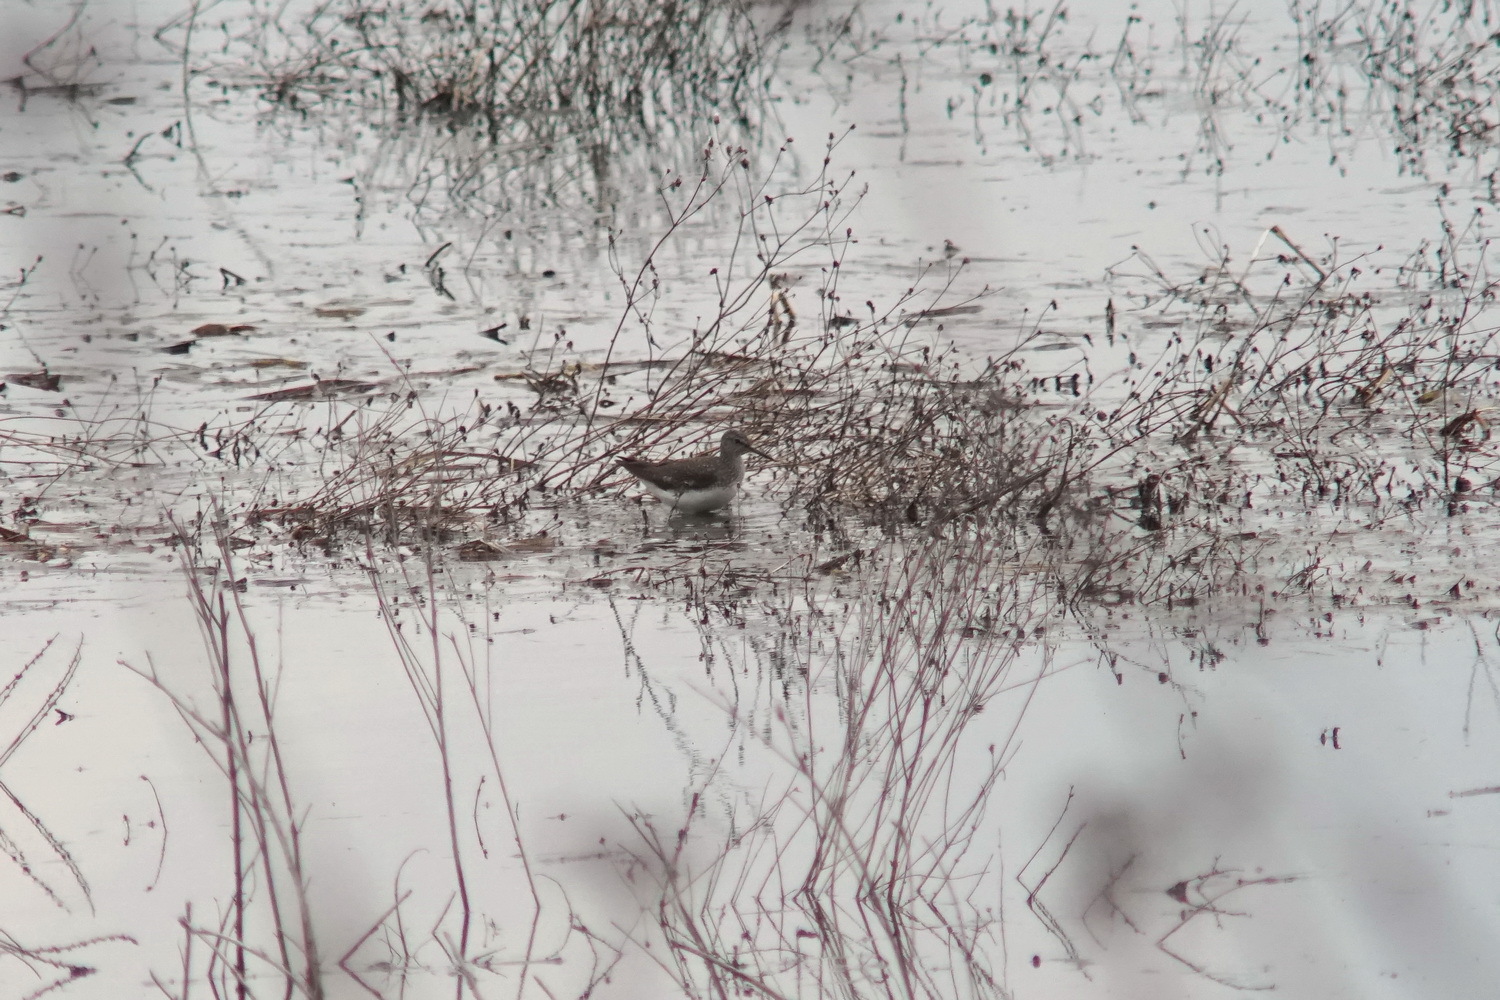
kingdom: Animalia
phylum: Chordata
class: Aves
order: Charadriiformes
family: Scolopacidae
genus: Tringa
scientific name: Tringa ochropus
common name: Green sandpiper
